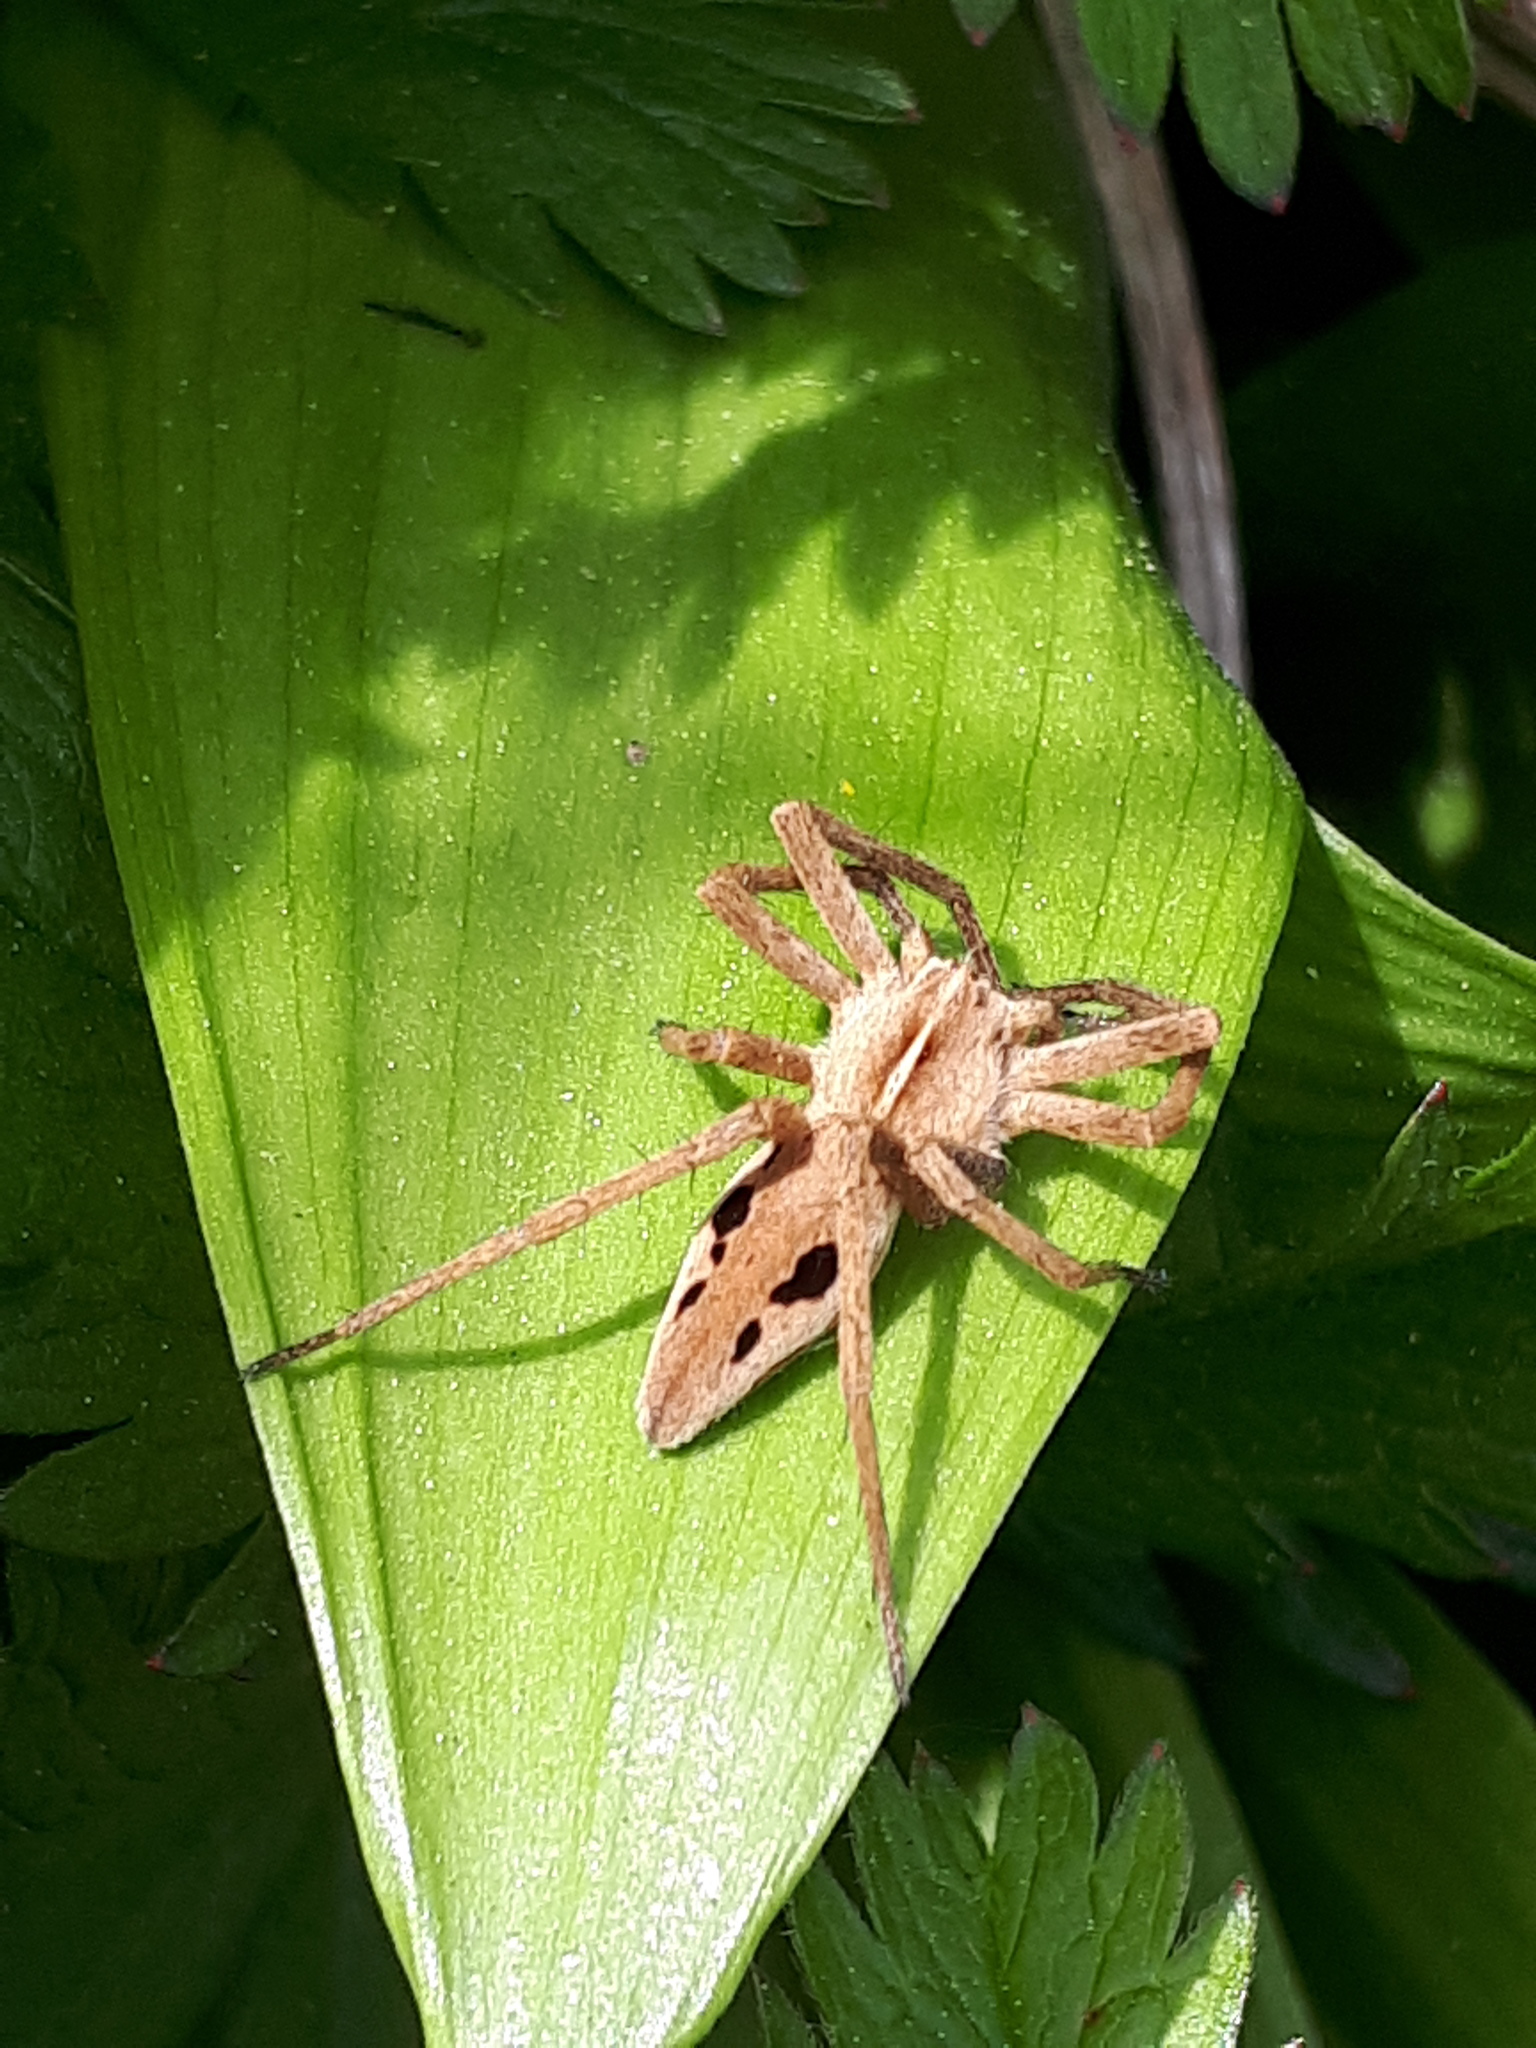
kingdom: Animalia
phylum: Arthropoda
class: Arachnida
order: Araneae
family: Pisauridae
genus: Pisaura
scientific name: Pisaura mirabilis
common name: Tent spider
